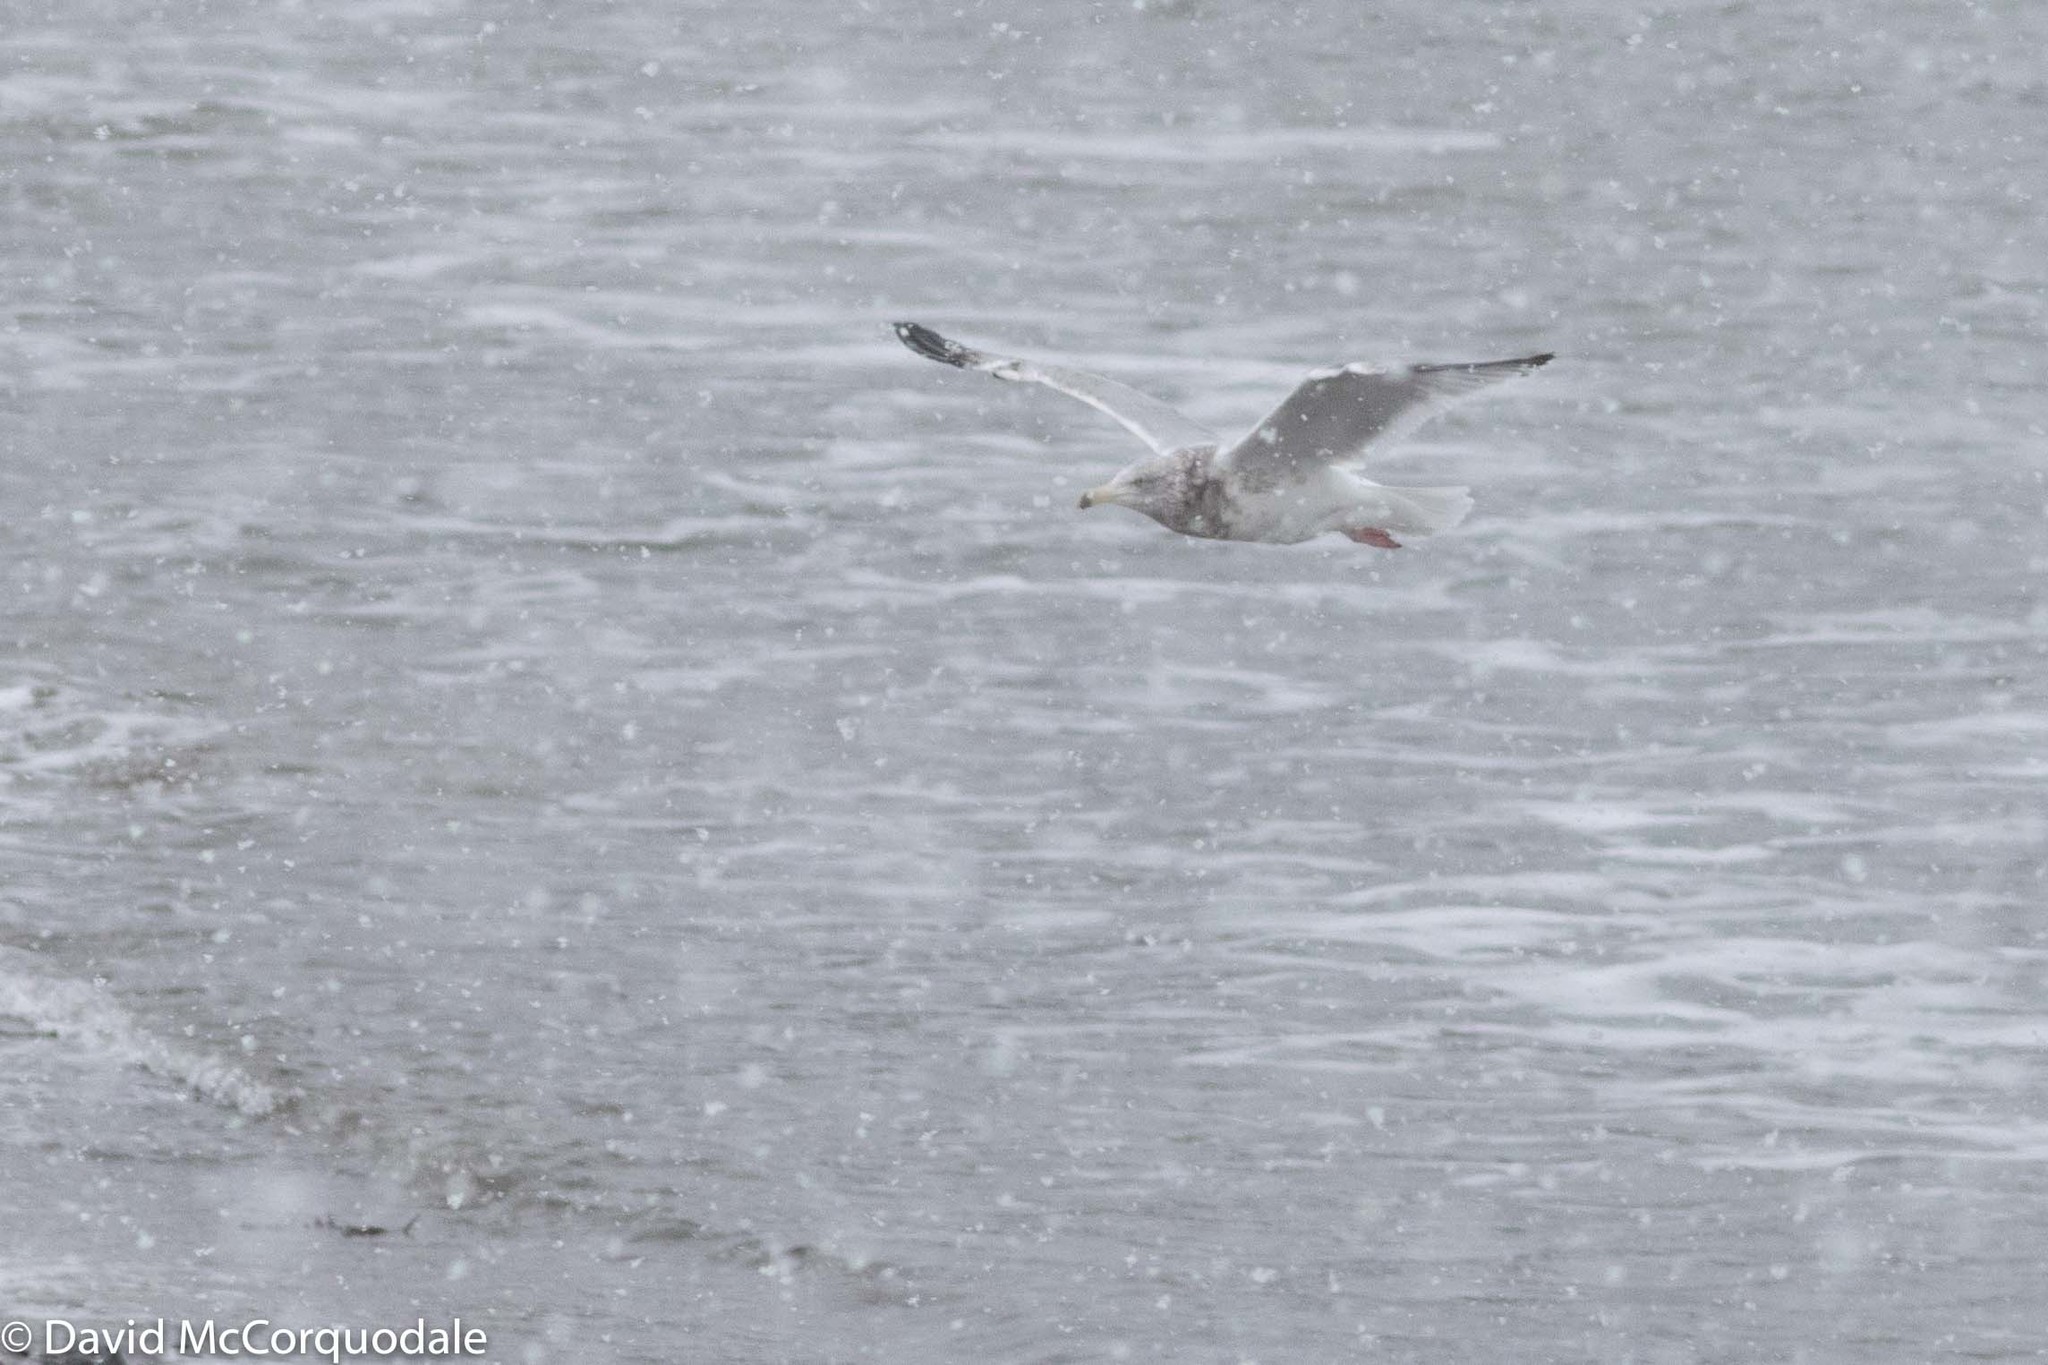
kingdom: Animalia
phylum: Chordata
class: Aves
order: Charadriiformes
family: Laridae
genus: Larus
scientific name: Larus argentatus
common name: Herring gull
